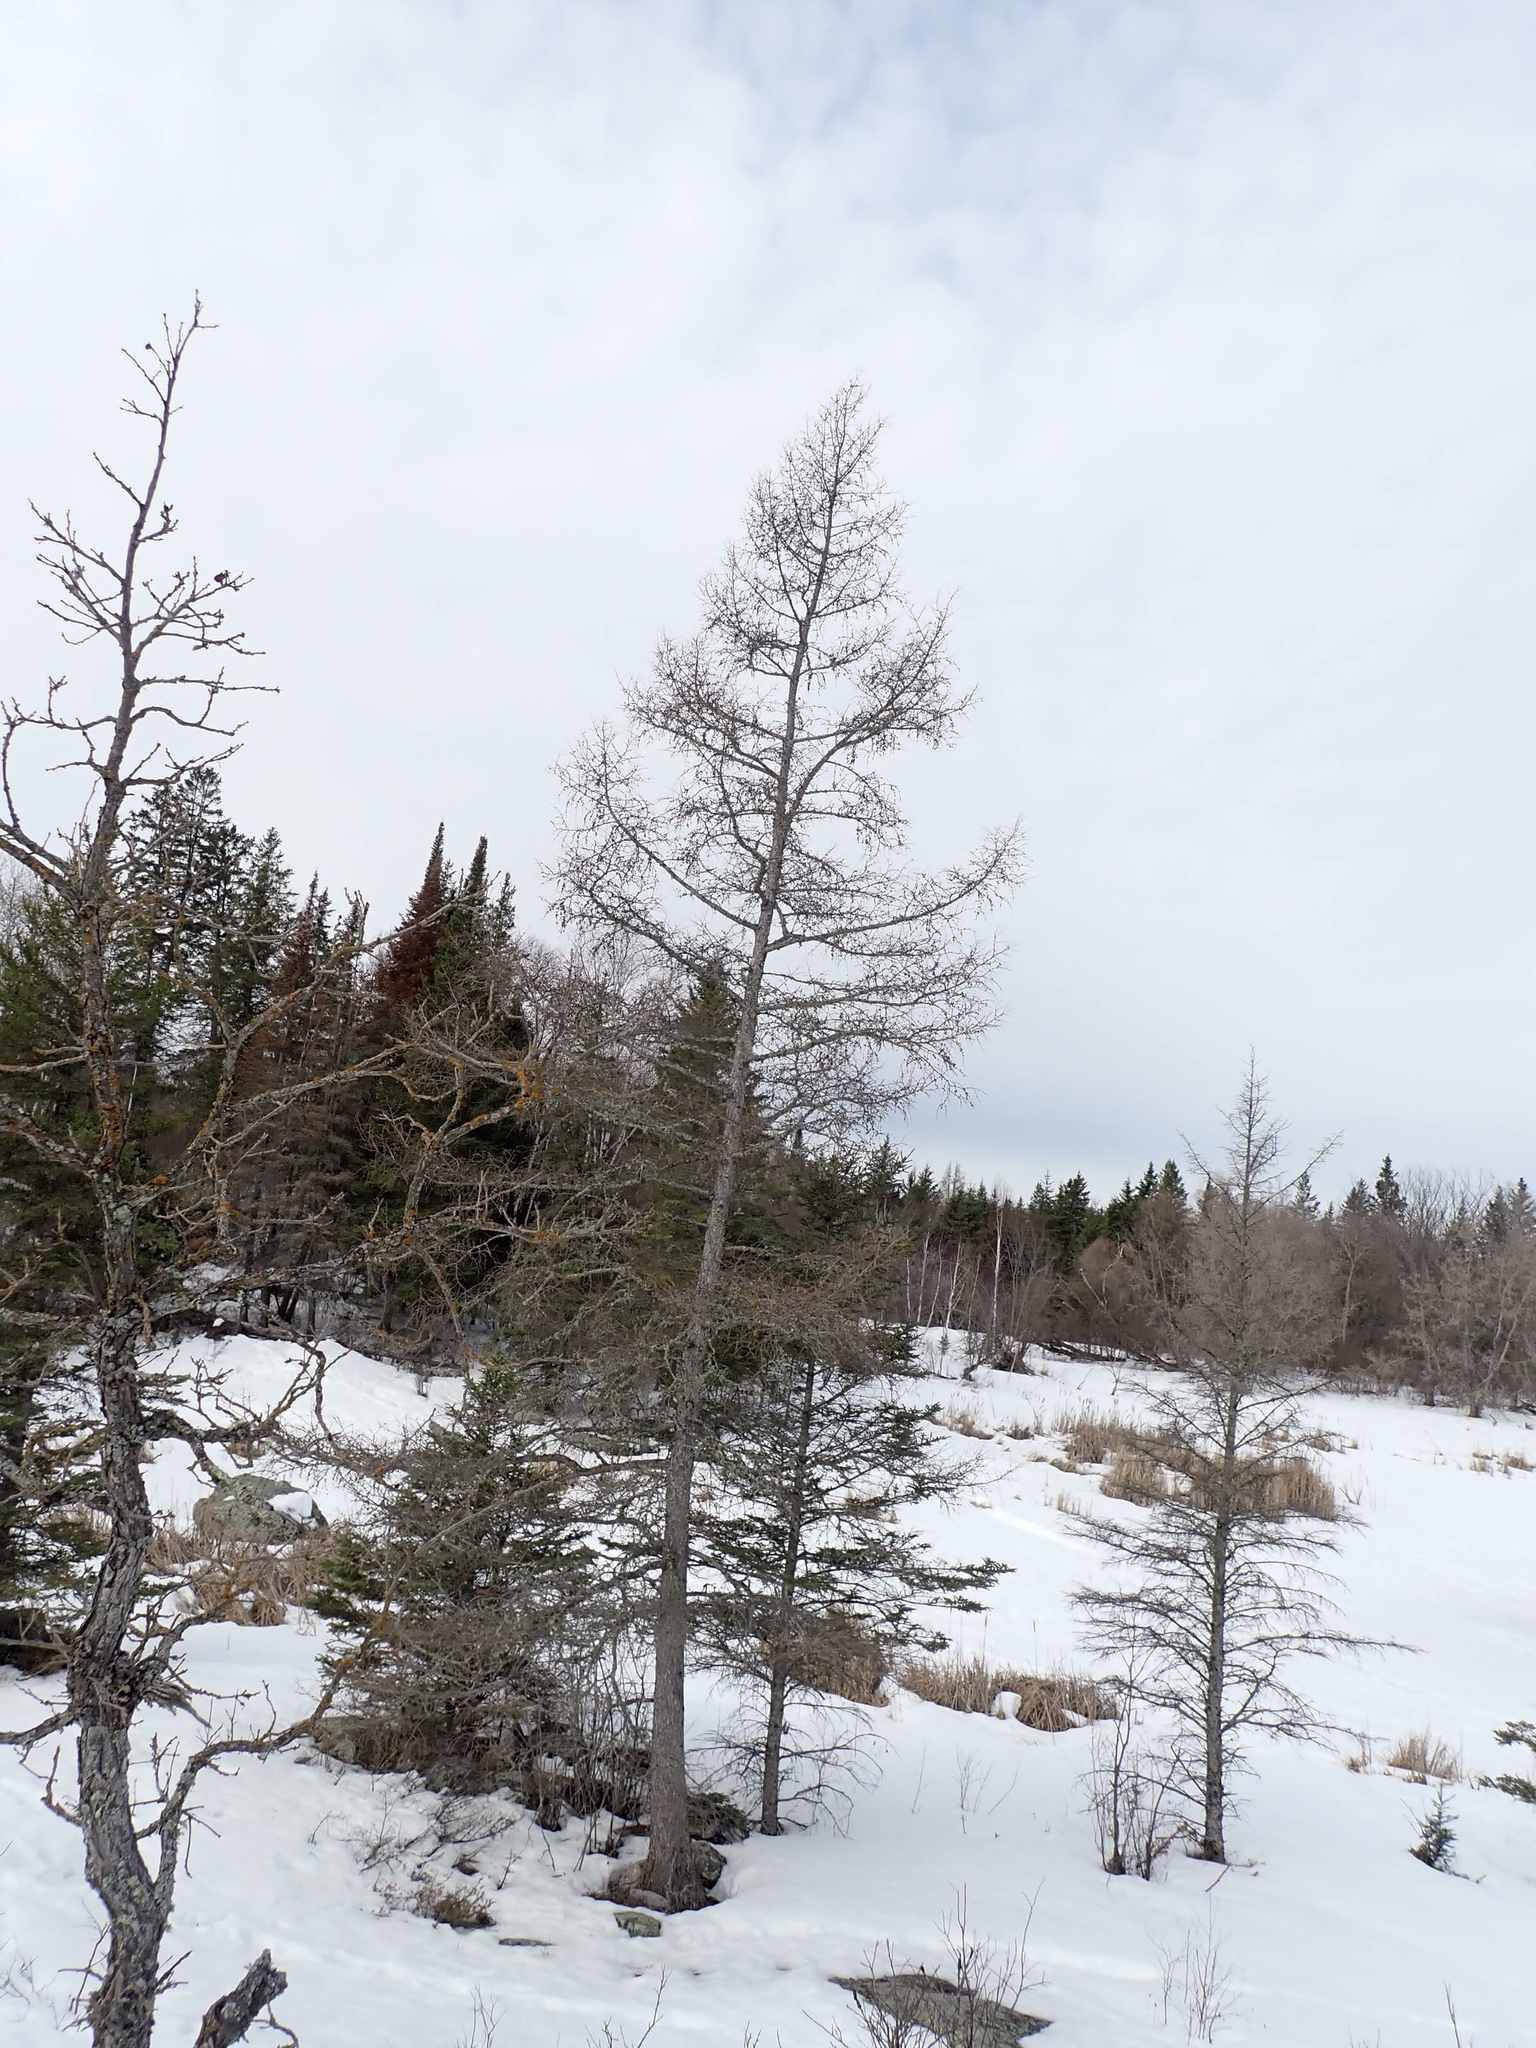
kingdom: Plantae
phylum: Tracheophyta
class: Pinopsida
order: Pinales
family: Pinaceae
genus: Larix
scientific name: Larix laricina
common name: American larch
